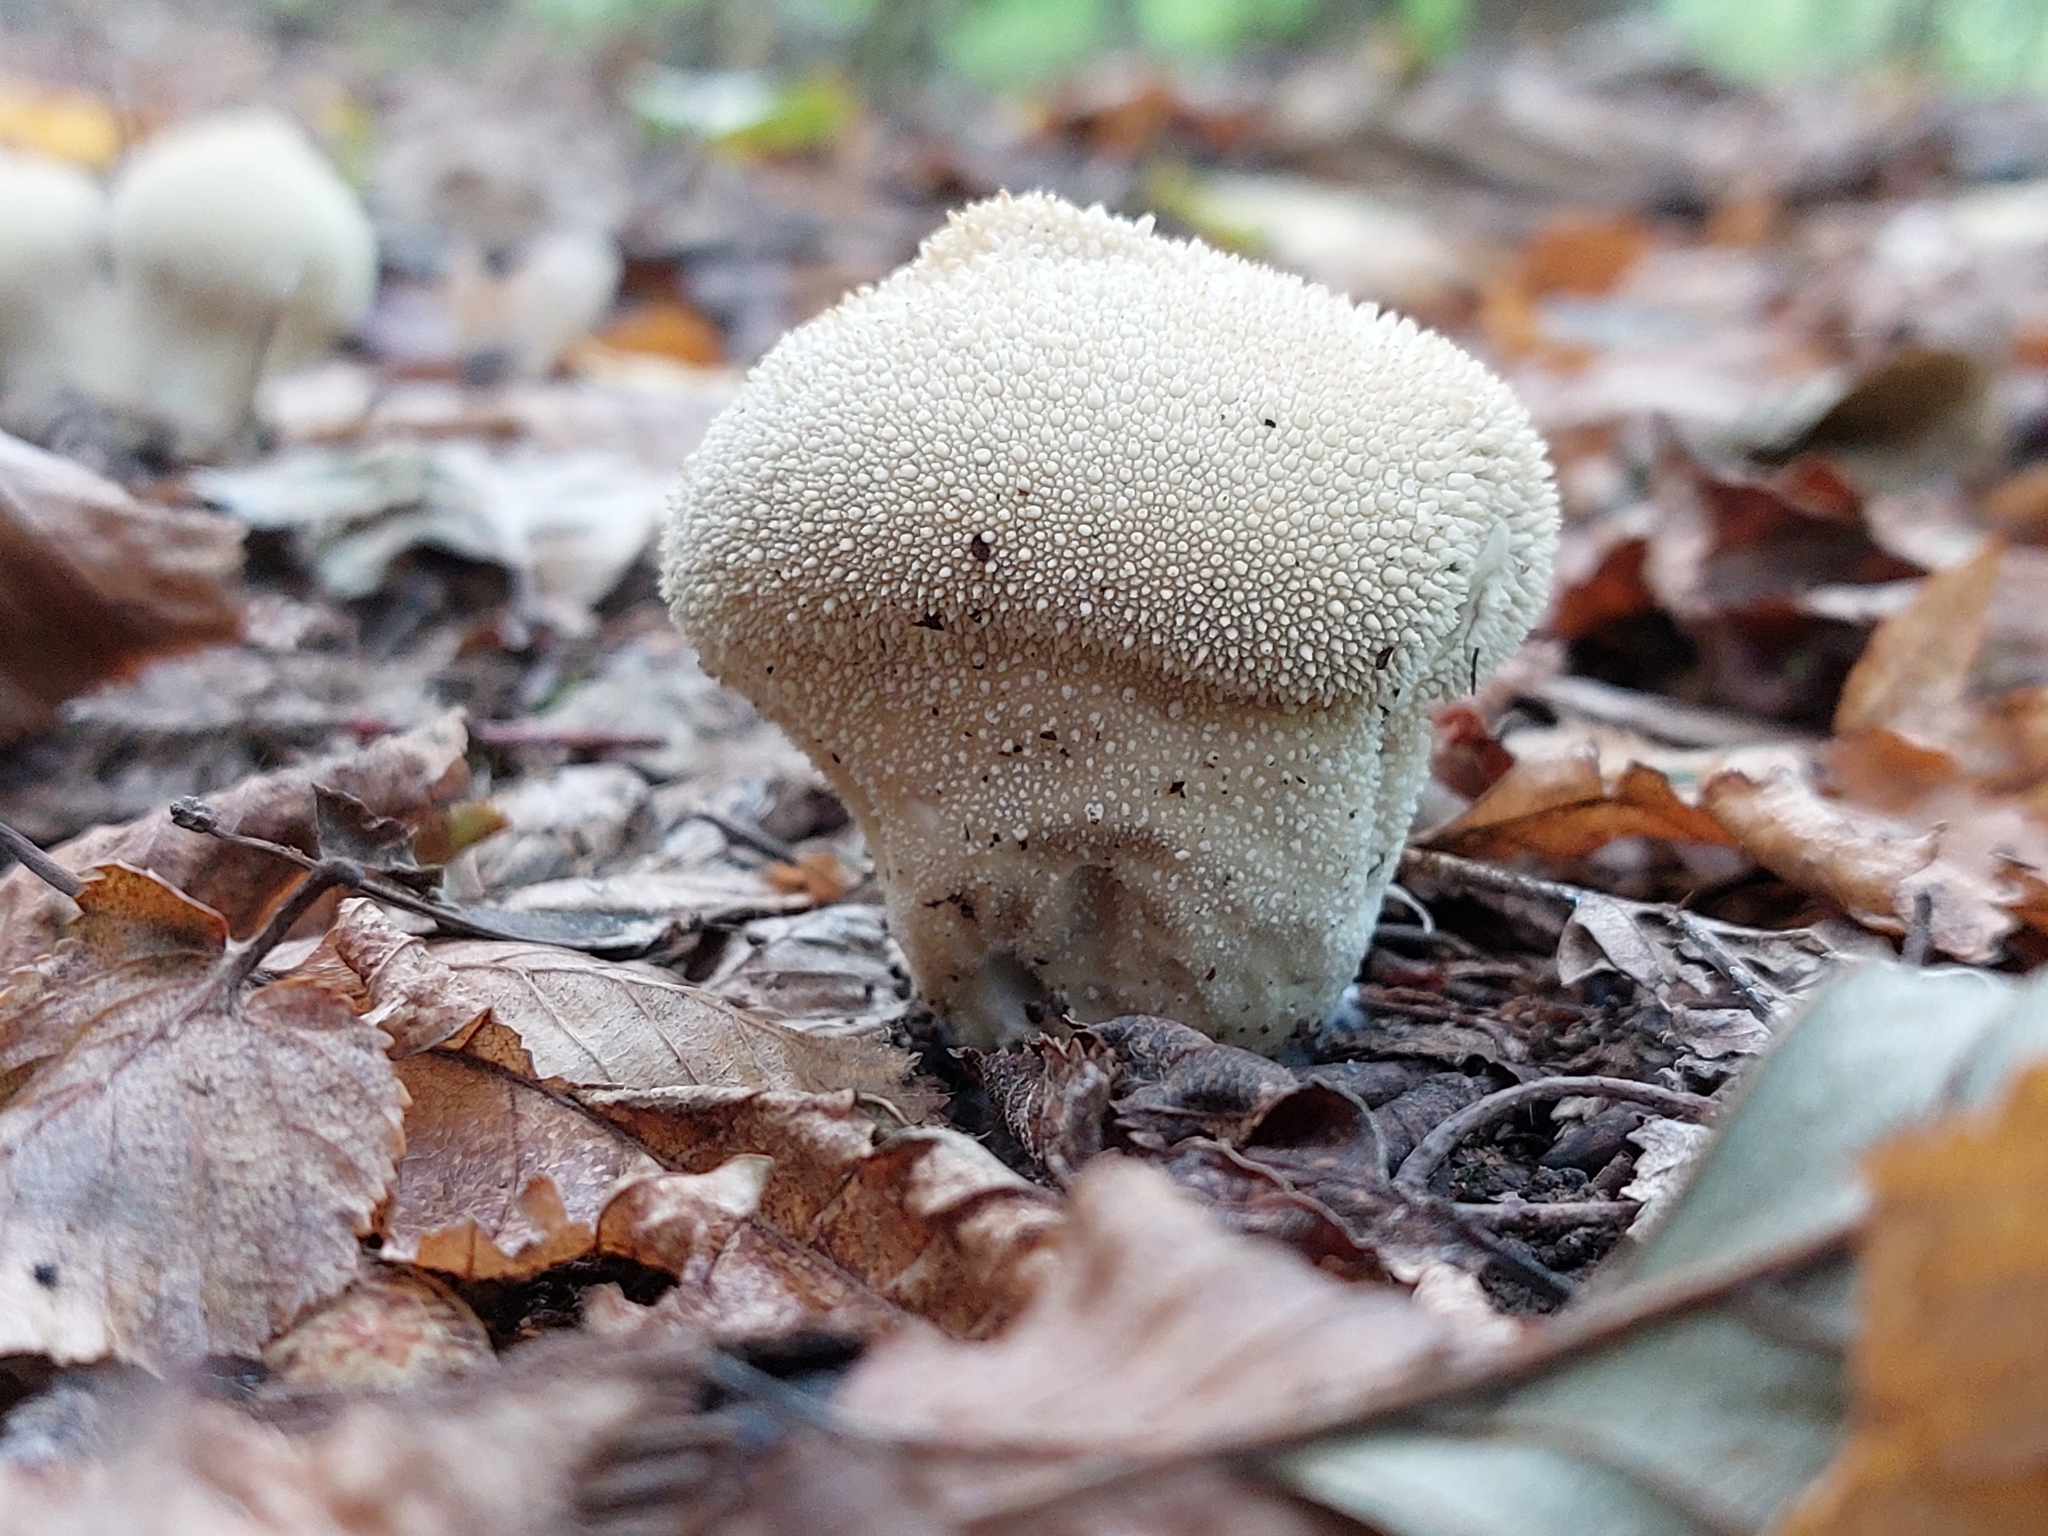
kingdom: Fungi
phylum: Basidiomycota
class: Agaricomycetes
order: Agaricales
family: Lycoperdaceae
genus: Lycoperdon
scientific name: Lycoperdon perlatum
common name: Common puffball
